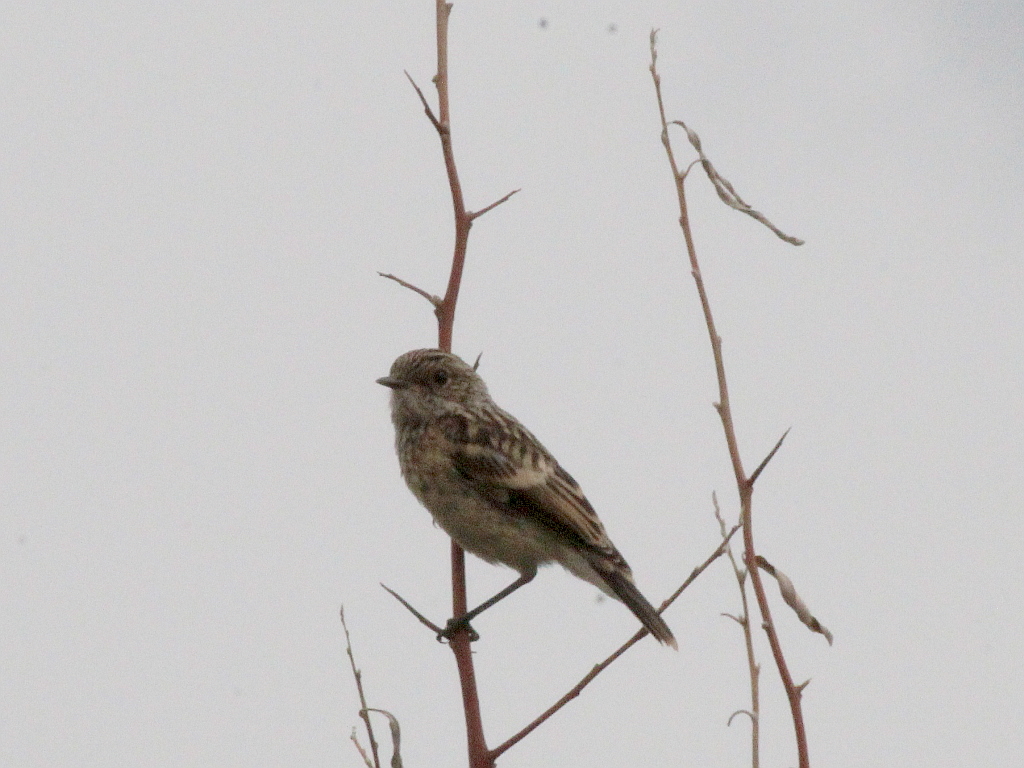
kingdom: Animalia
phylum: Chordata
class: Aves
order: Passeriformes
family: Muscicapidae
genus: Saxicola
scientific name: Saxicola maurus
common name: Siberian stonechat
